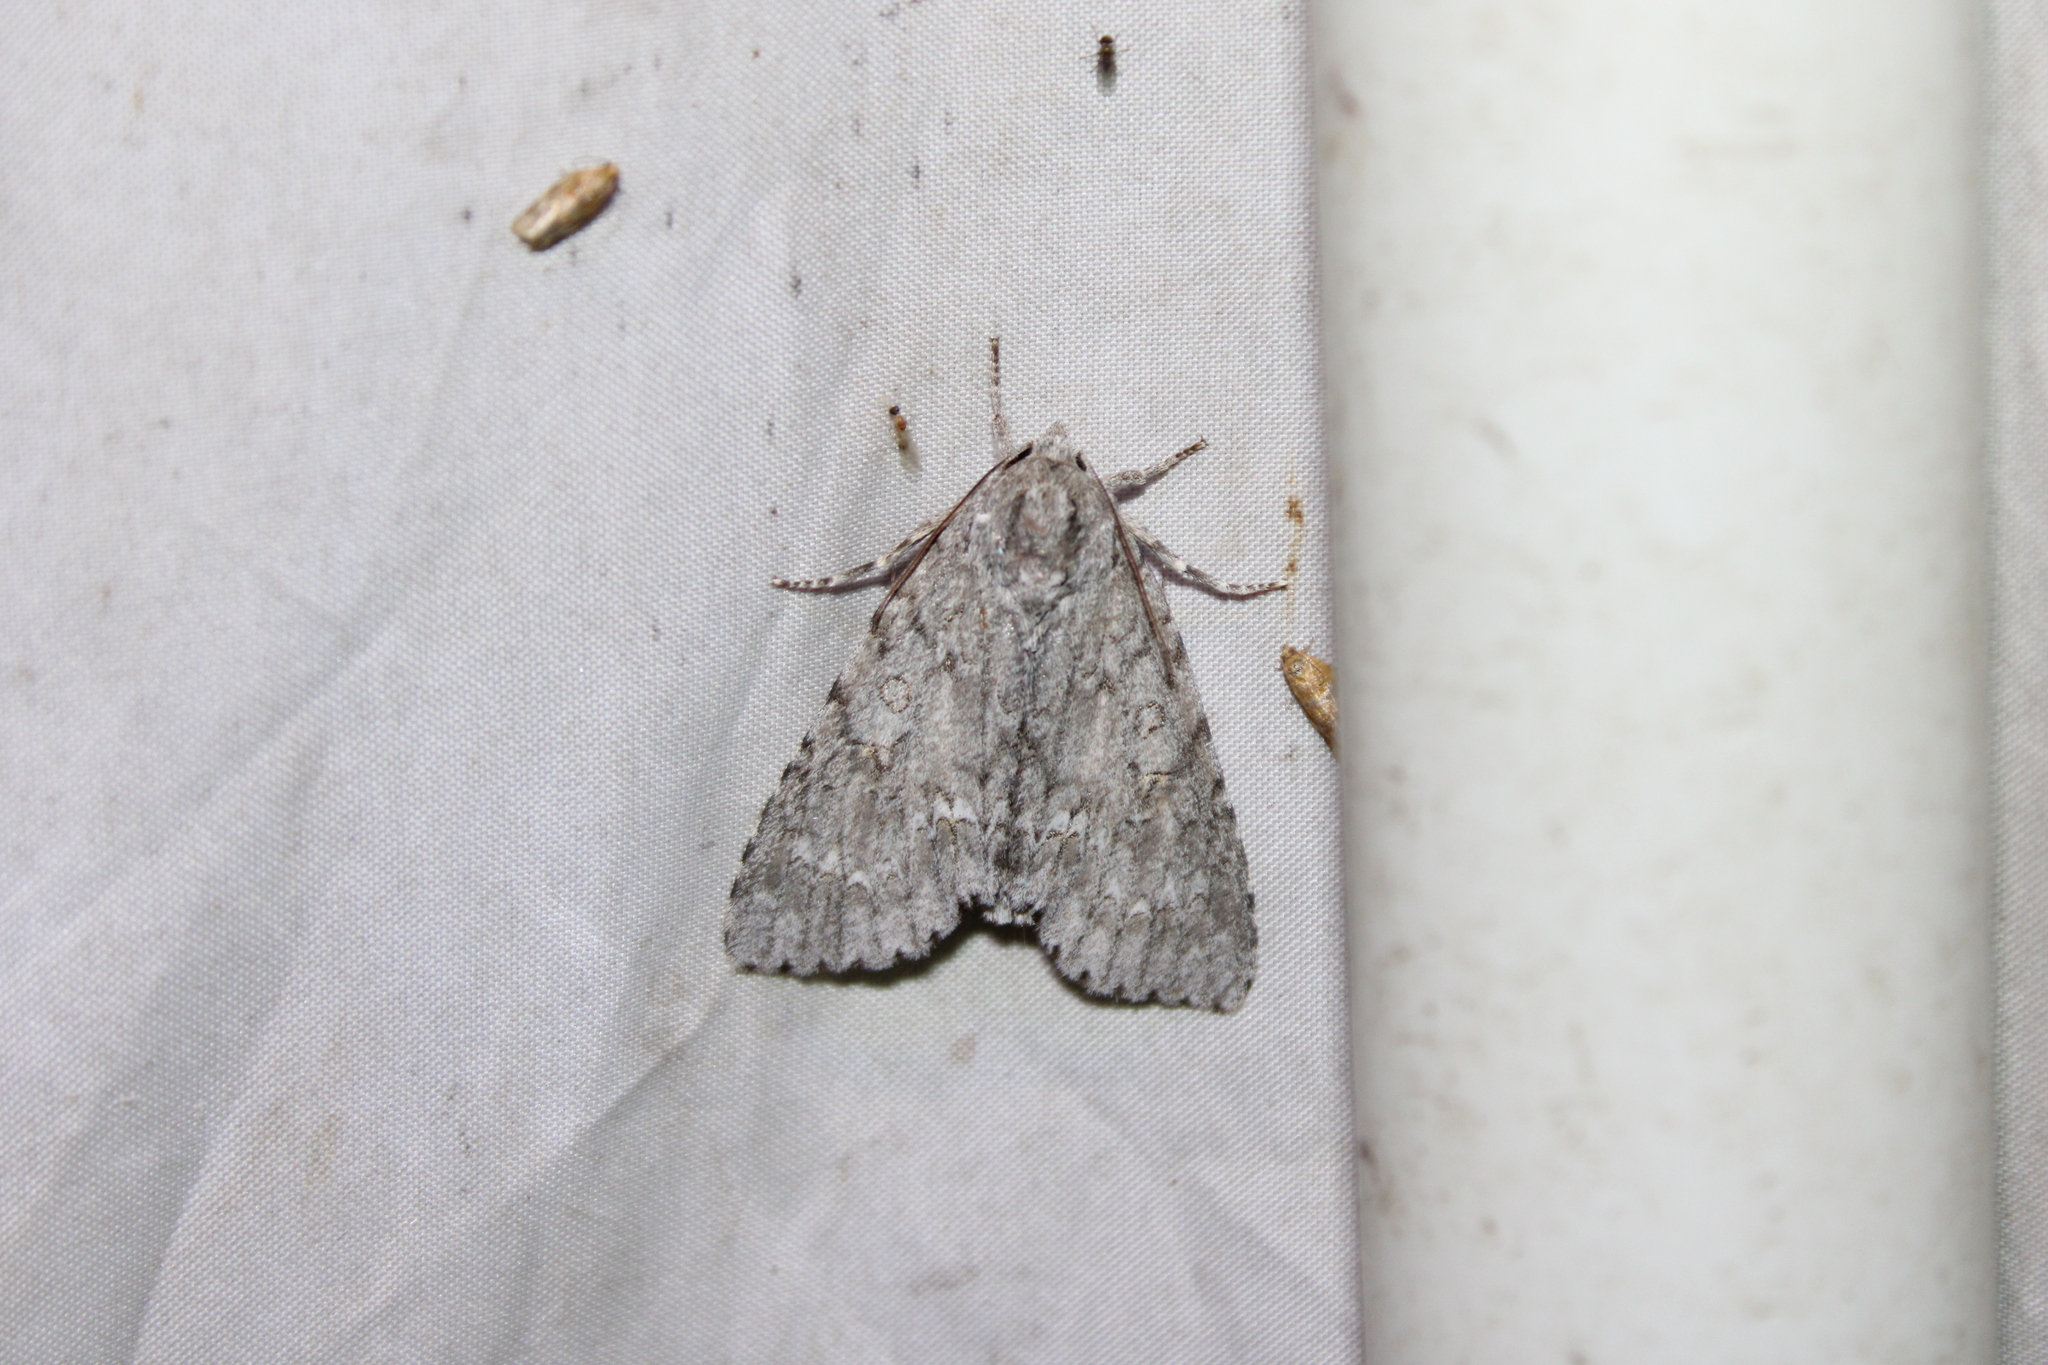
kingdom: Animalia
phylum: Arthropoda
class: Insecta
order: Lepidoptera
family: Noctuidae
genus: Acronicta
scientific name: Acronicta americana
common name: American dagger
